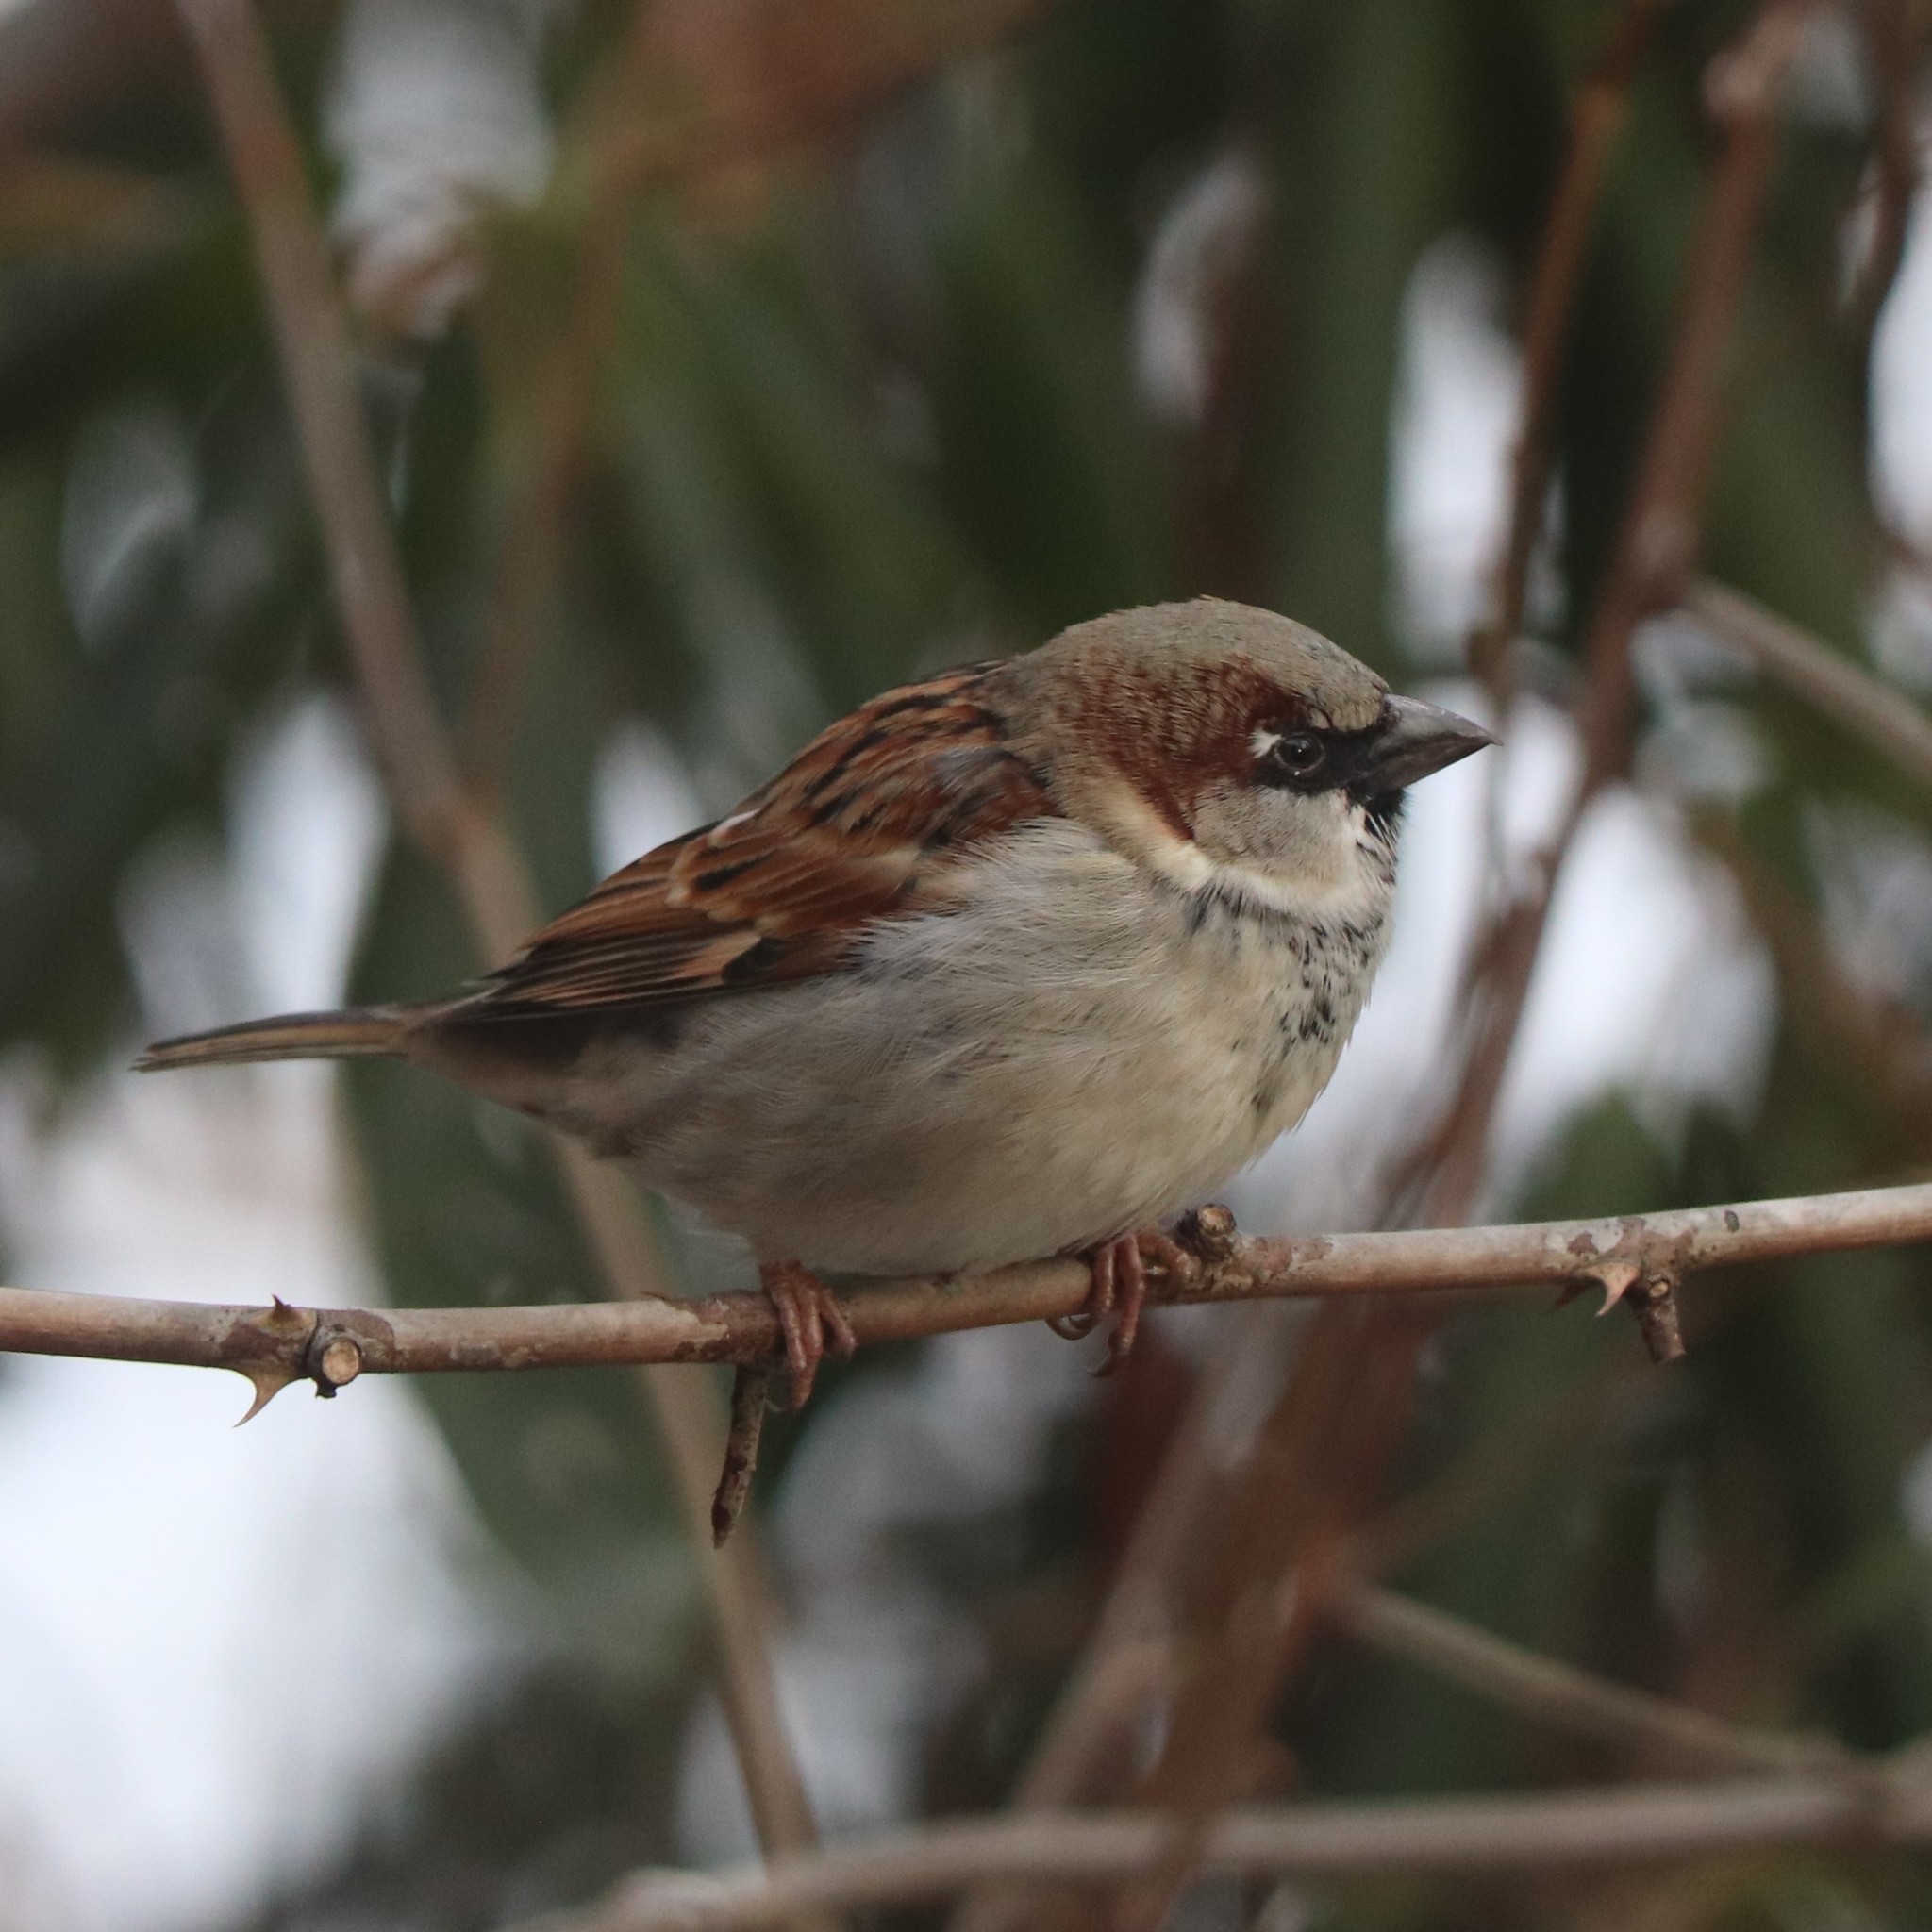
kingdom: Animalia
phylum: Chordata
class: Aves
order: Passeriformes
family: Passeridae
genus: Passer
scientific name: Passer domesticus
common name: House sparrow
